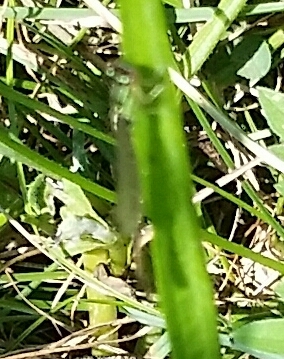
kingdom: Animalia
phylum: Arthropoda
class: Insecta
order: Odonata
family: Coenagrionidae
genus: Ischnura
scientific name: Ischnura posita
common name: Fragile forktail
